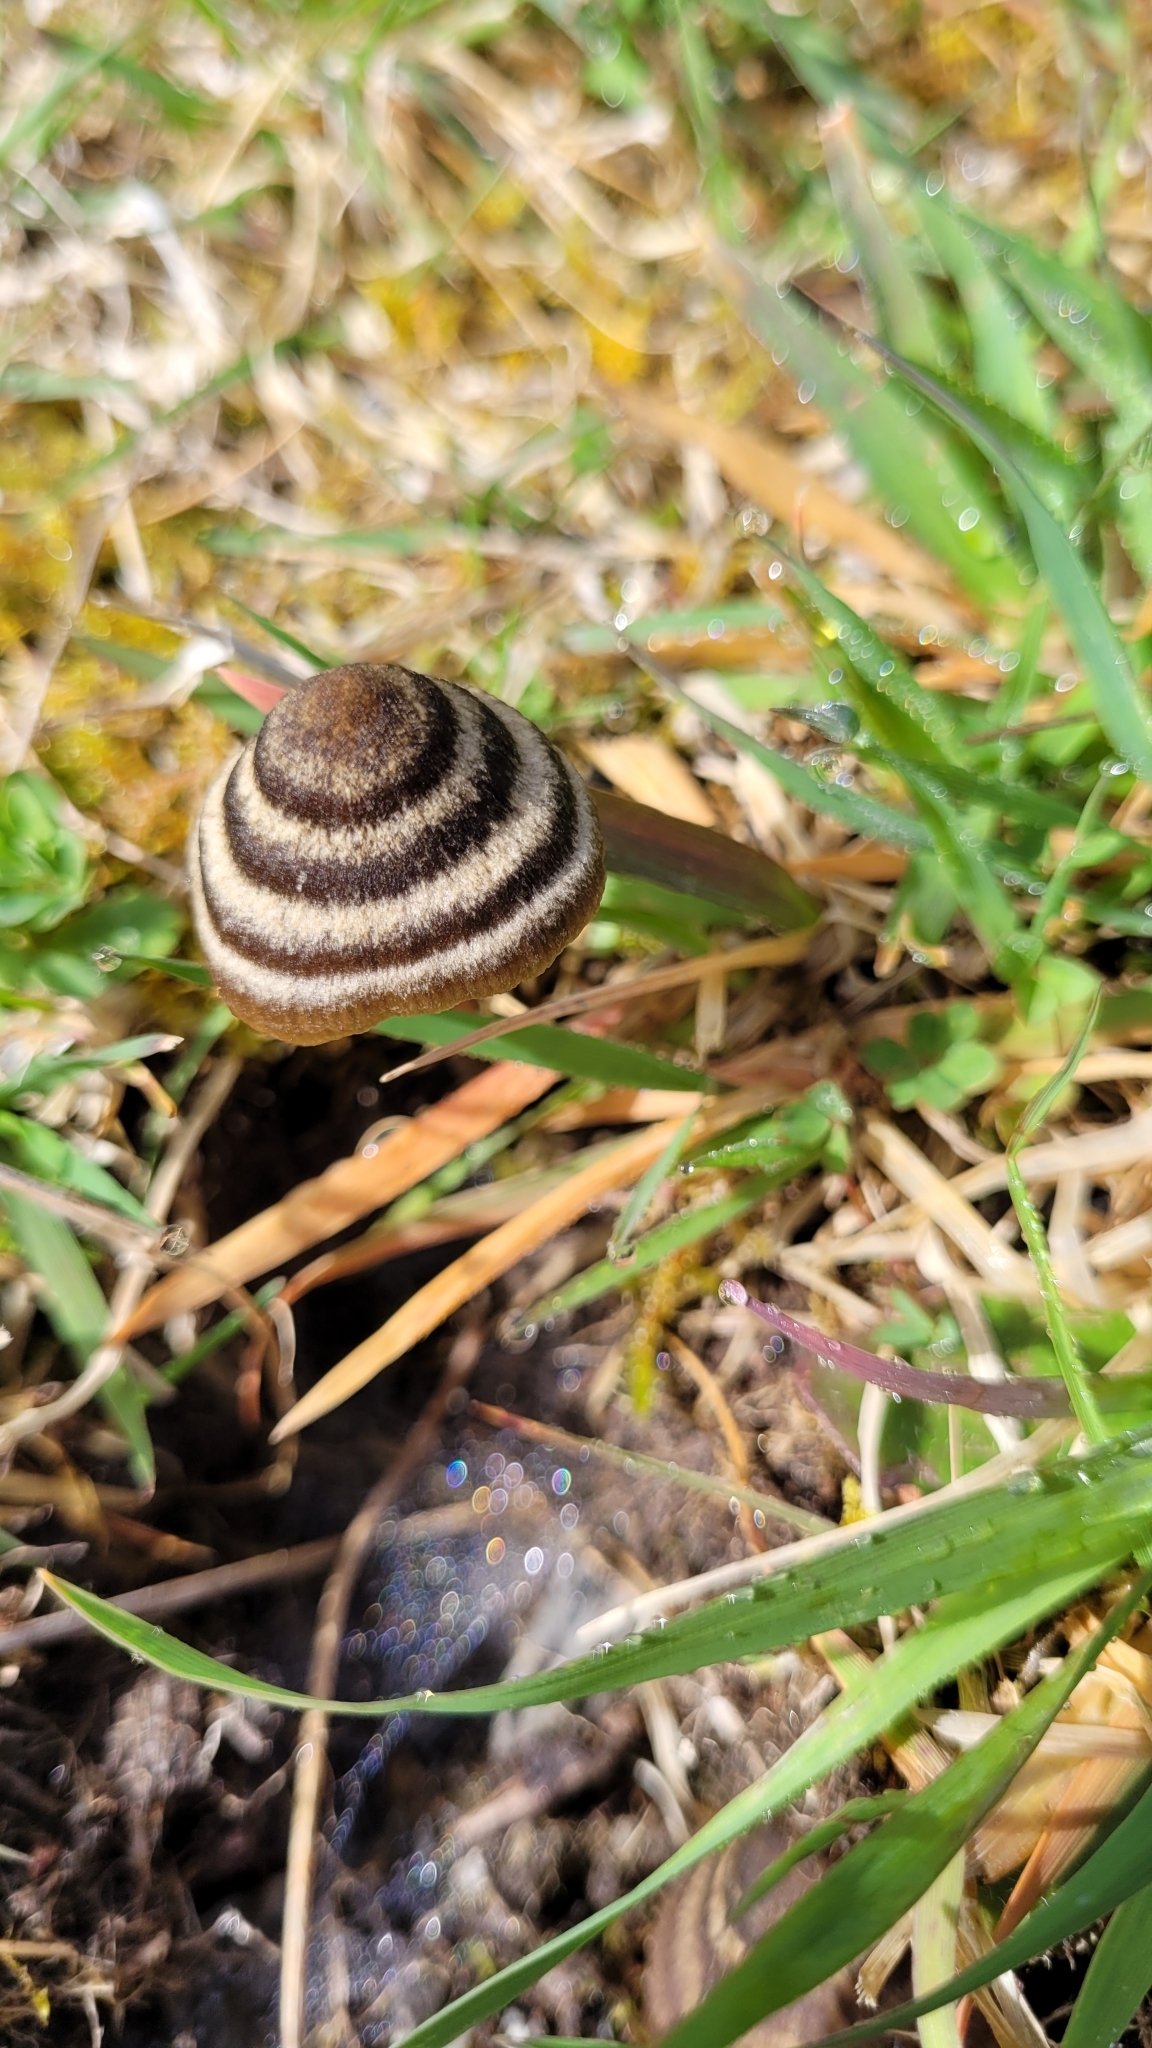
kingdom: Fungi
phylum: Basidiomycota
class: Agaricomycetes
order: Agaricales
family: Entolomataceae
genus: Entoloma
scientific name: Entoloma perzonatum
